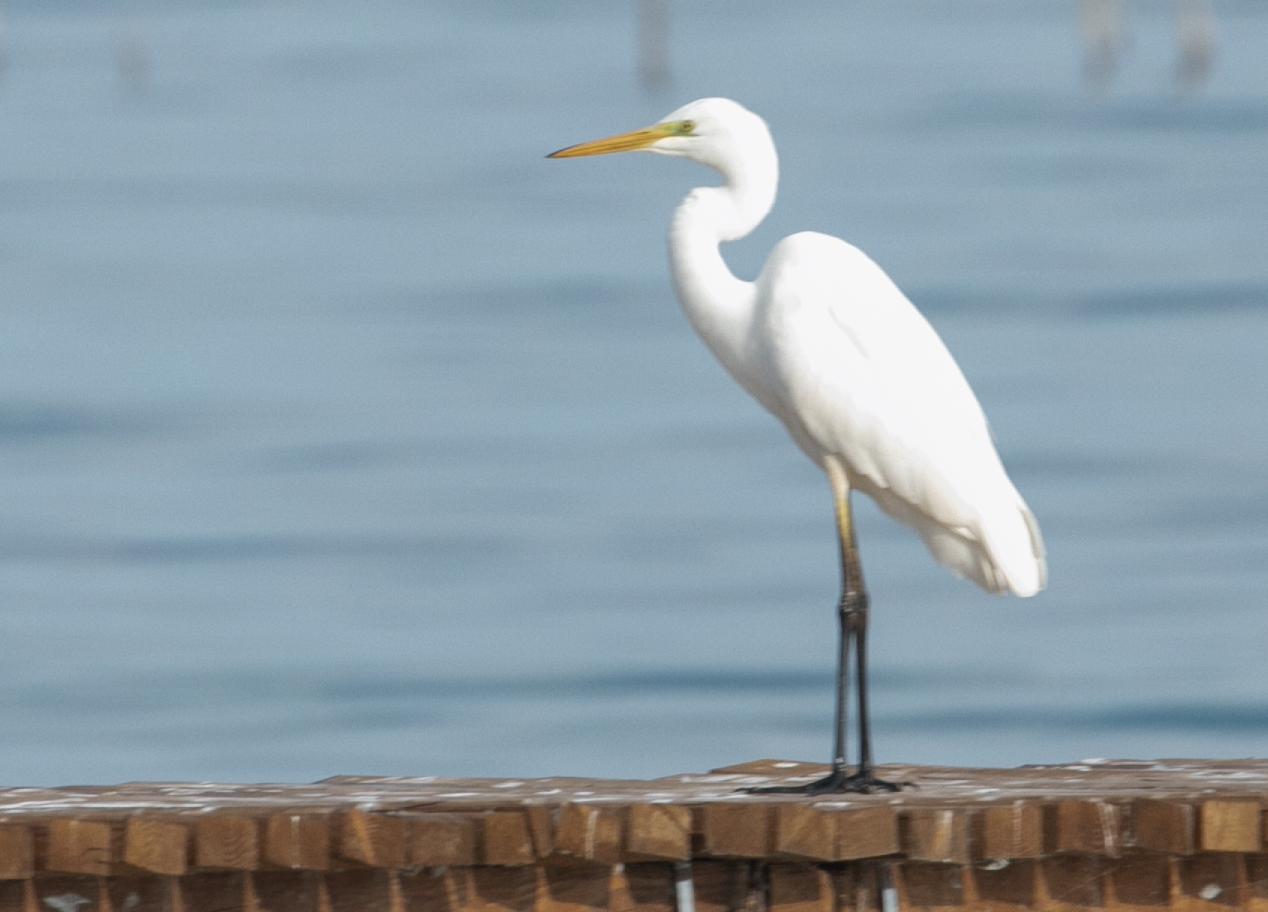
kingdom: Animalia
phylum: Chordata
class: Aves
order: Pelecaniformes
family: Ardeidae
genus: Ardea
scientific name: Ardea alba
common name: Great egret
